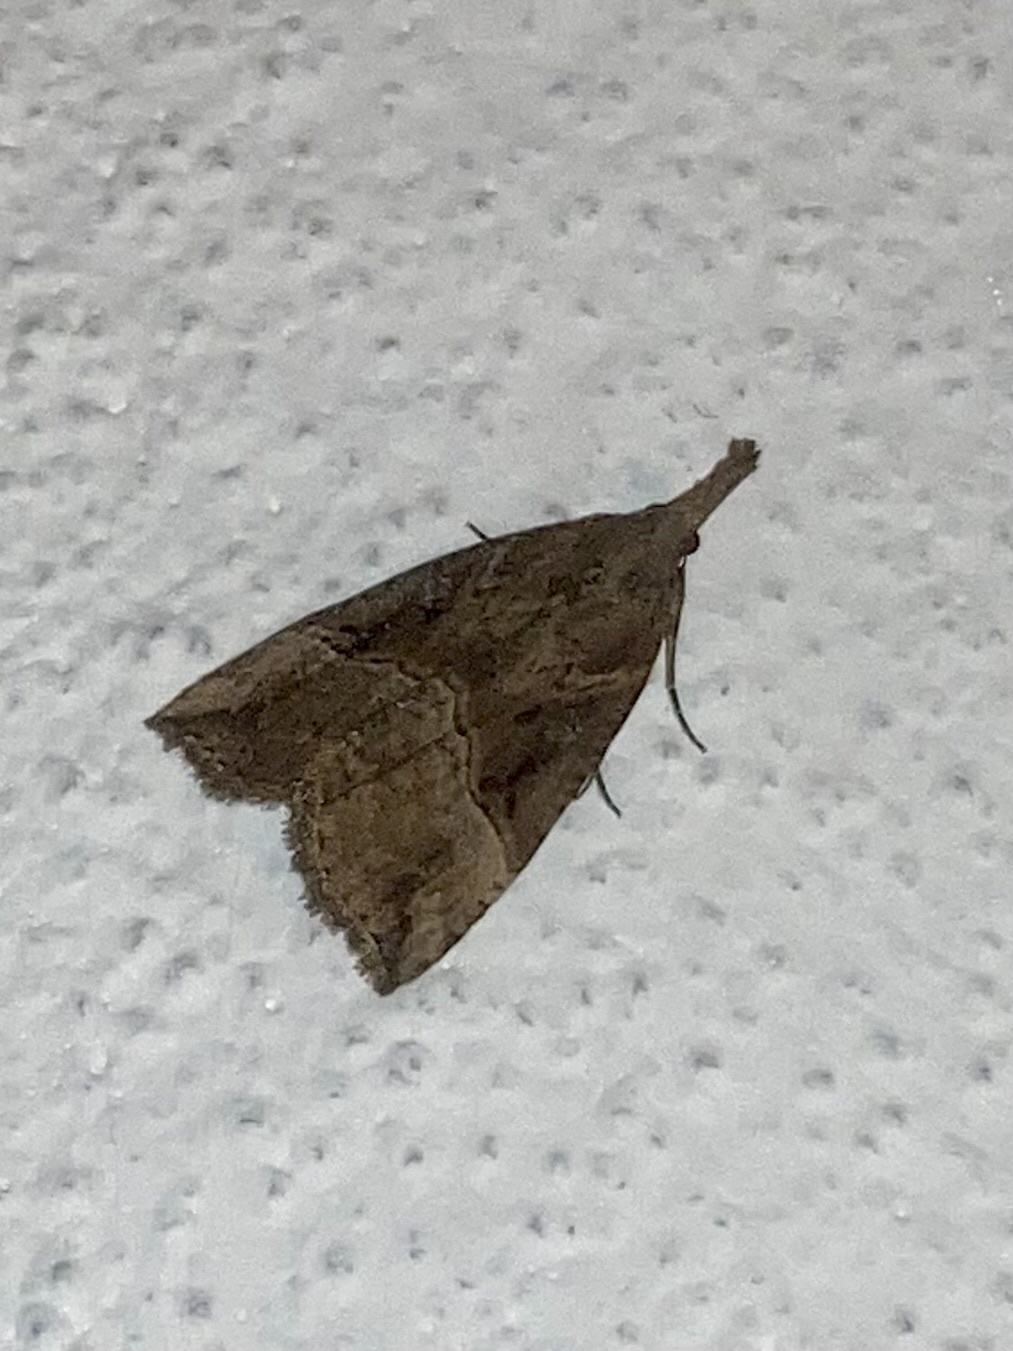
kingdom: Animalia
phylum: Arthropoda
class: Insecta
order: Lepidoptera
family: Erebidae
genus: Hypena
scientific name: Hypena rostralis
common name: Buttoned snout
